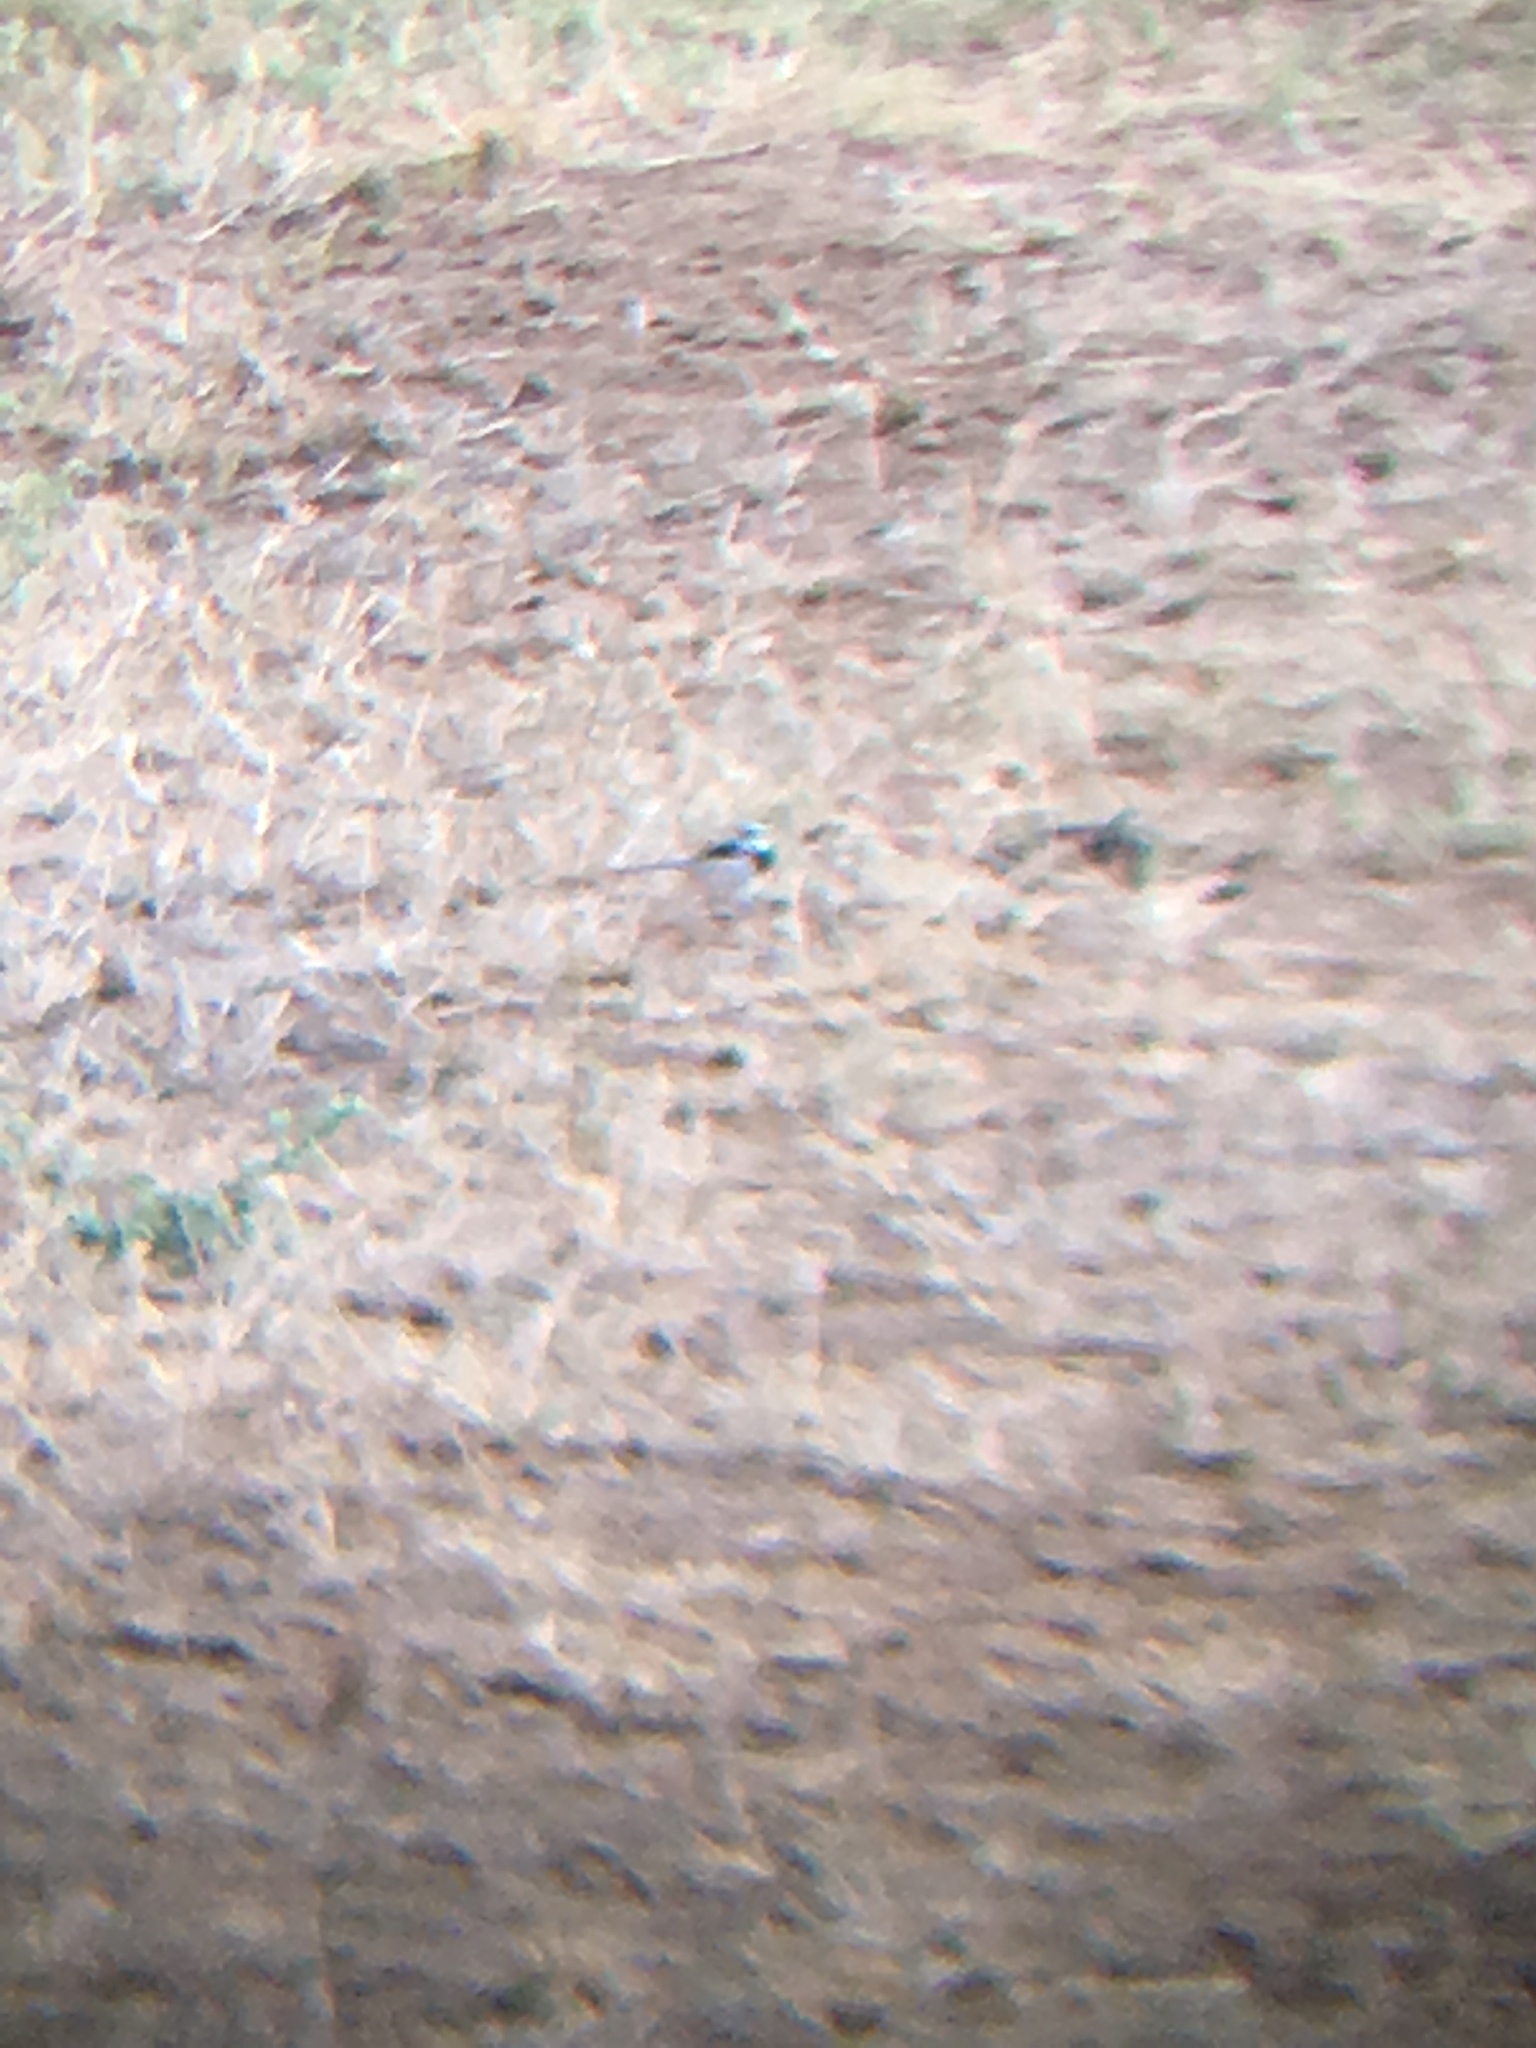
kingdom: Animalia
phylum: Chordata
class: Aves
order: Passeriformes
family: Motacillidae
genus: Motacilla
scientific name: Motacilla aguimp
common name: African pied wagtail
